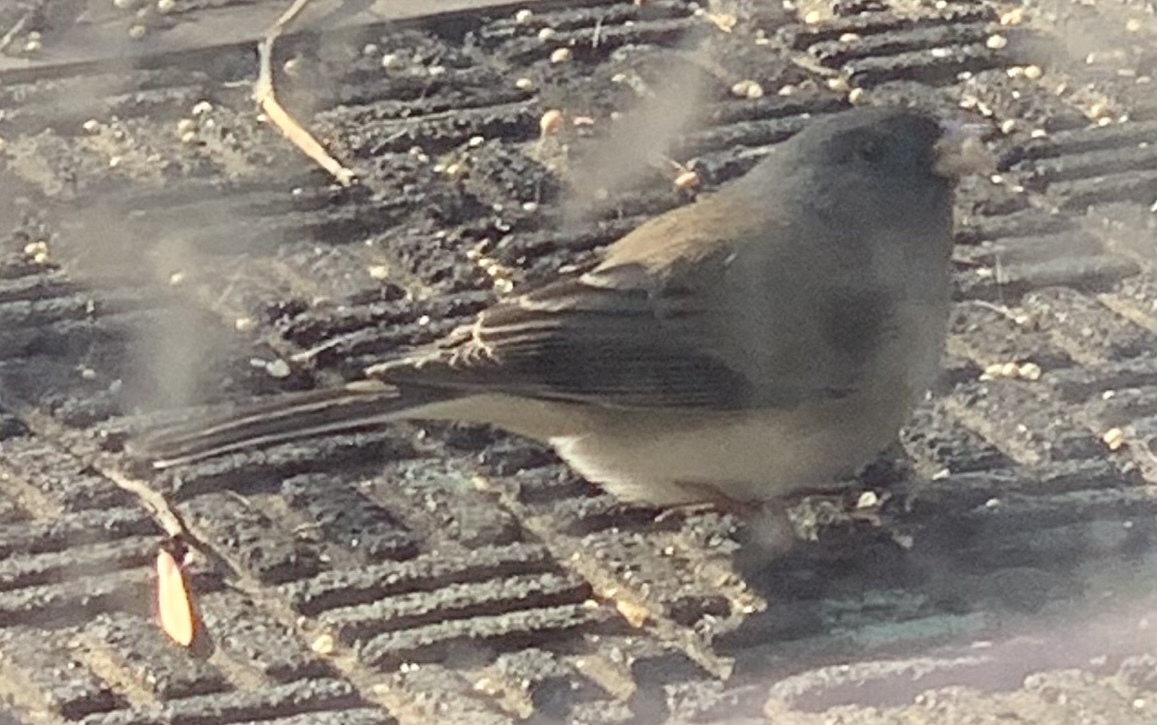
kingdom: Animalia
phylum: Chordata
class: Aves
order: Passeriformes
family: Passerellidae
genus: Junco
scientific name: Junco hyemalis
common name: Dark-eyed junco
